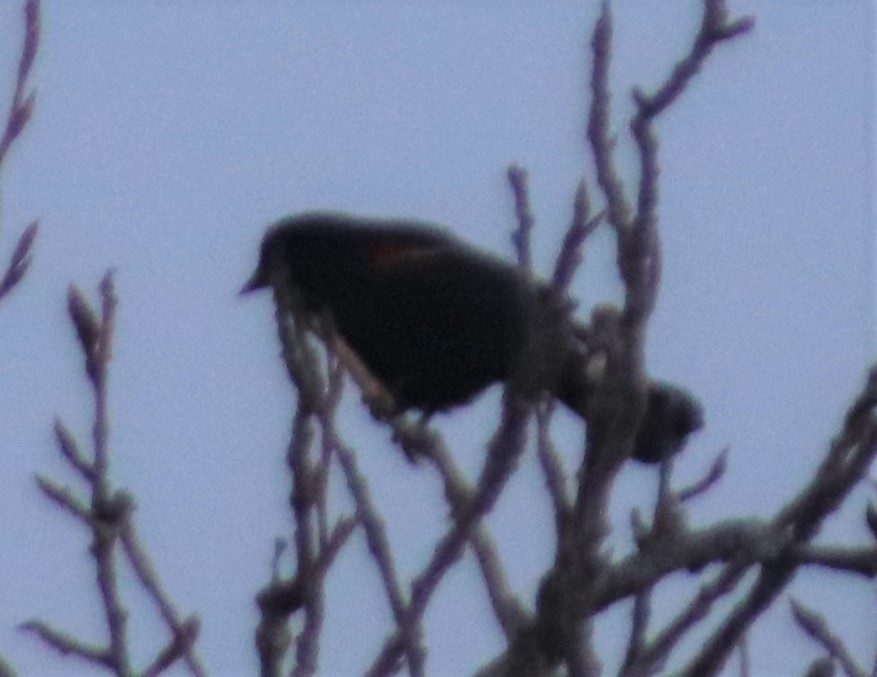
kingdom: Animalia
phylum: Chordata
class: Aves
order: Passeriformes
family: Icteridae
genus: Agelaius
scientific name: Agelaius phoeniceus
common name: Red-winged blackbird
